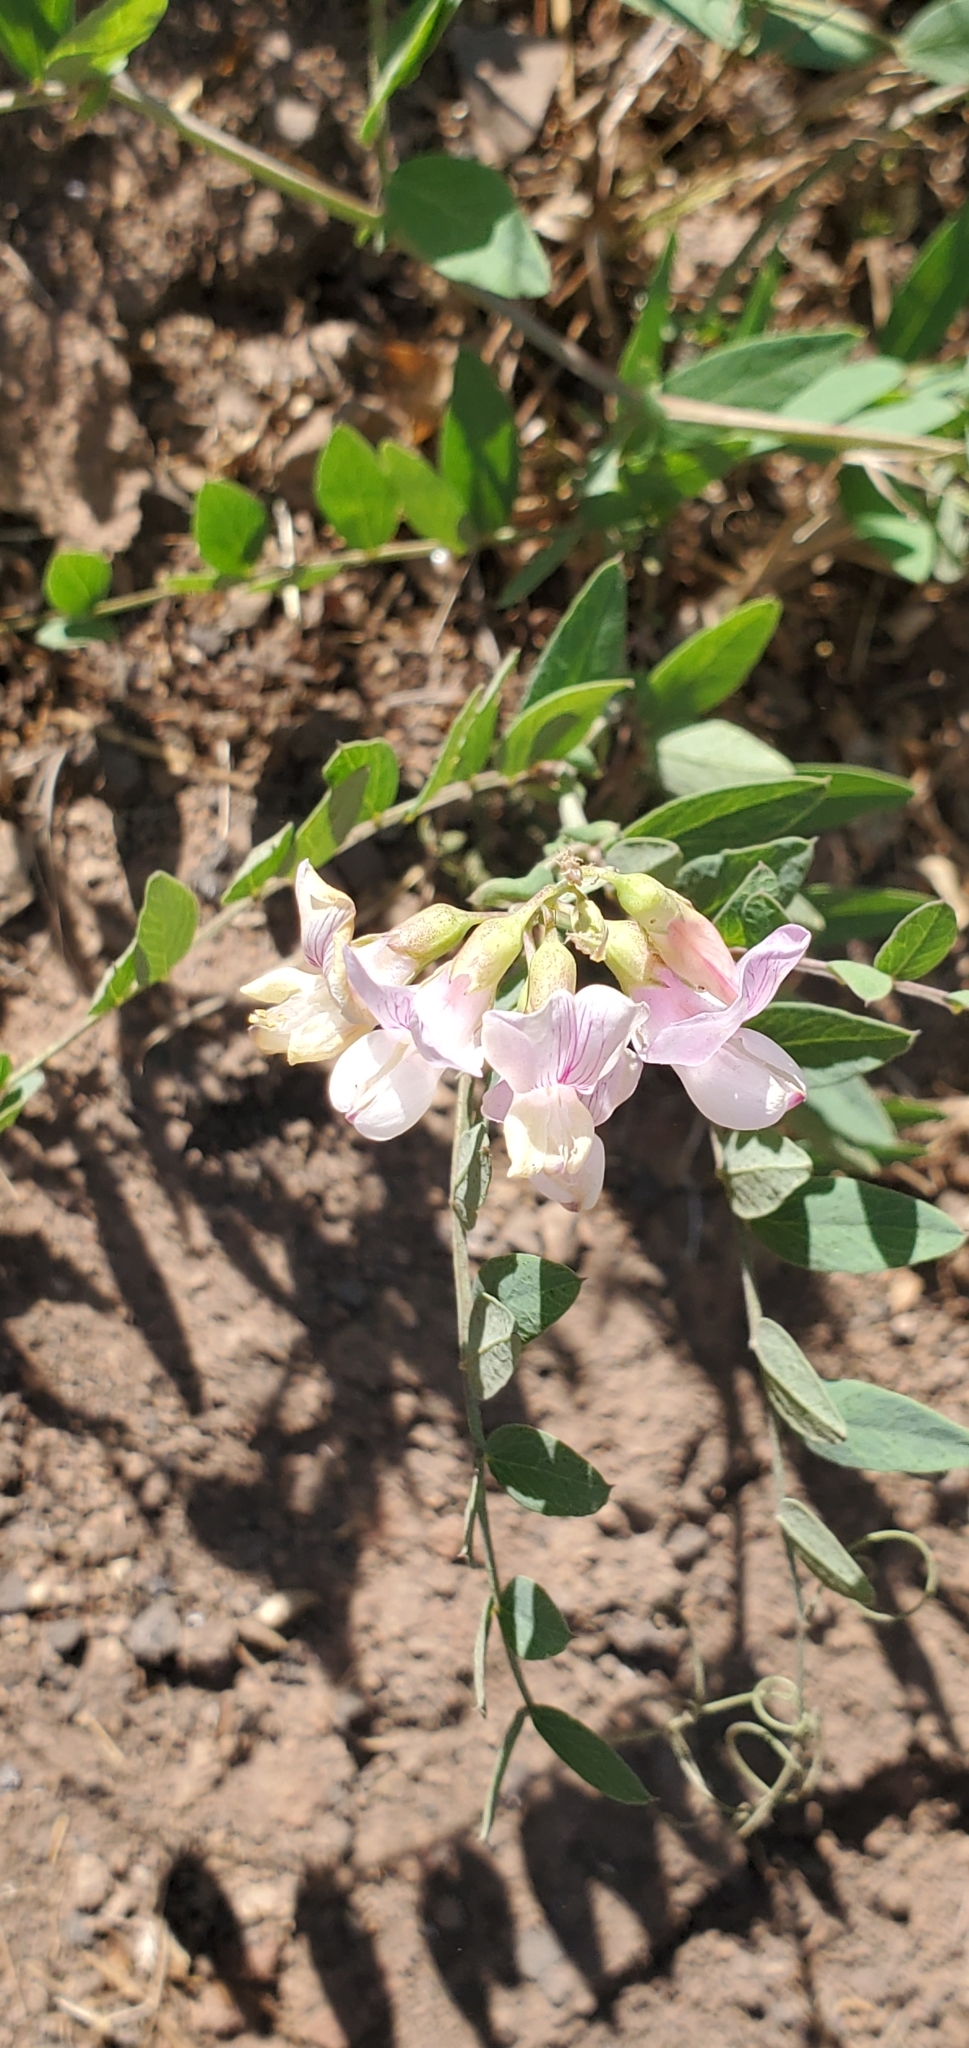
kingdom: Plantae
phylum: Tracheophyta
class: Magnoliopsida
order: Fabales
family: Fabaceae
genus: Lathyrus
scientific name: Lathyrus vestitus
